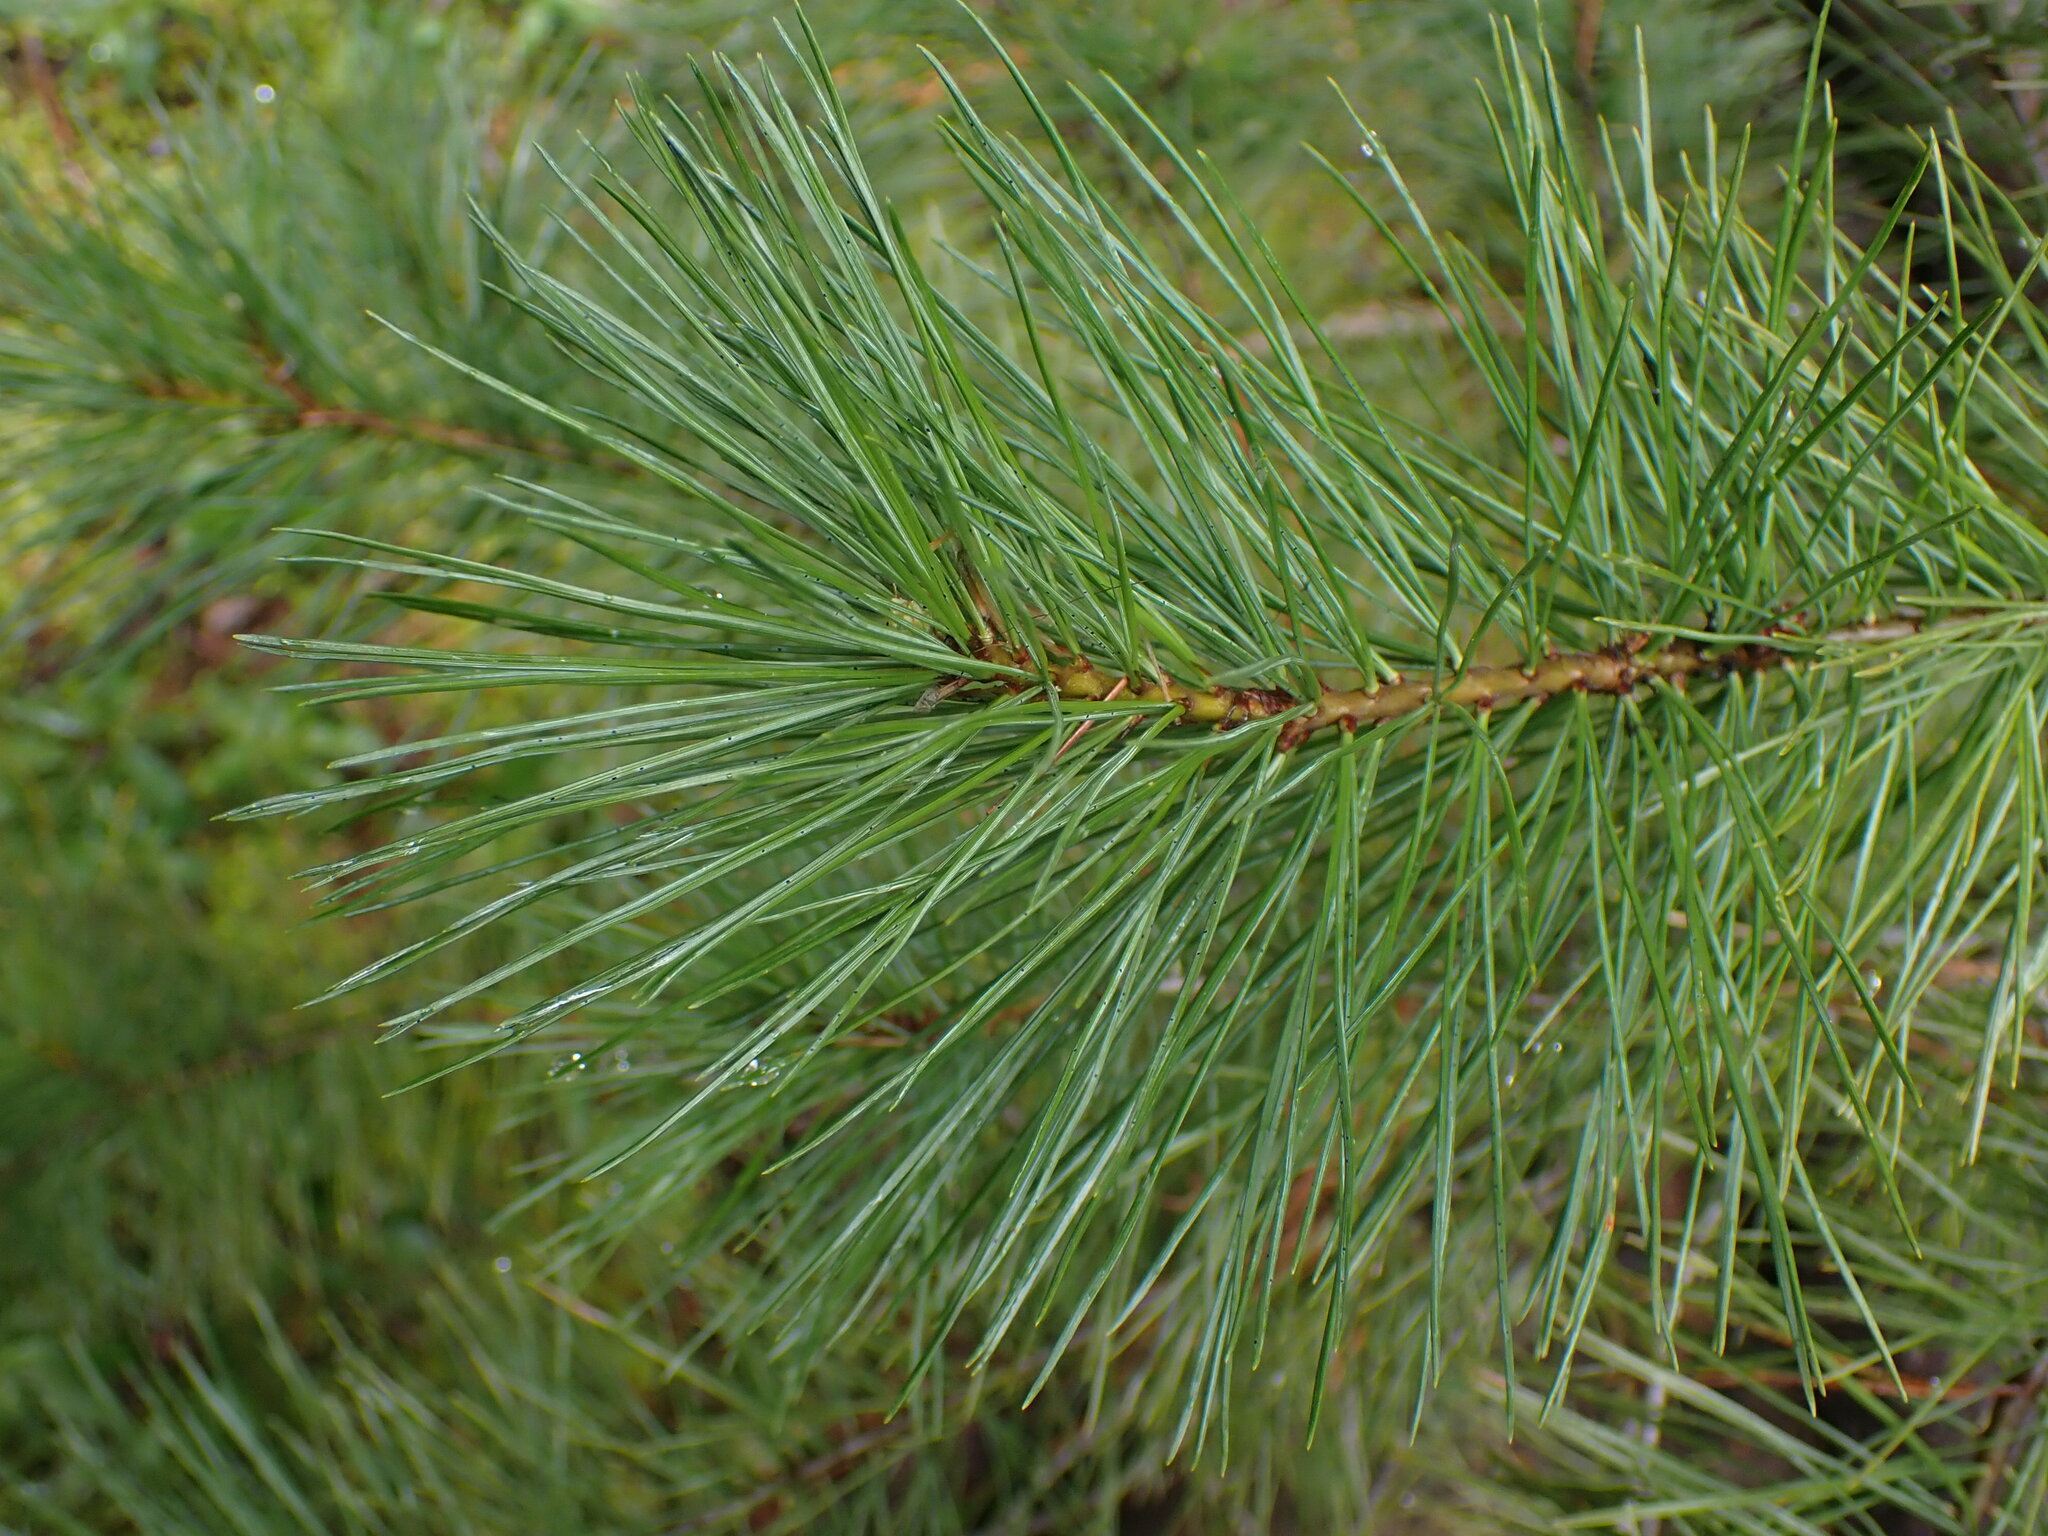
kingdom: Plantae
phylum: Tracheophyta
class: Pinopsida
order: Pinales
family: Pinaceae
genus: Pinus
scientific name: Pinus monticola
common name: Western white pine
